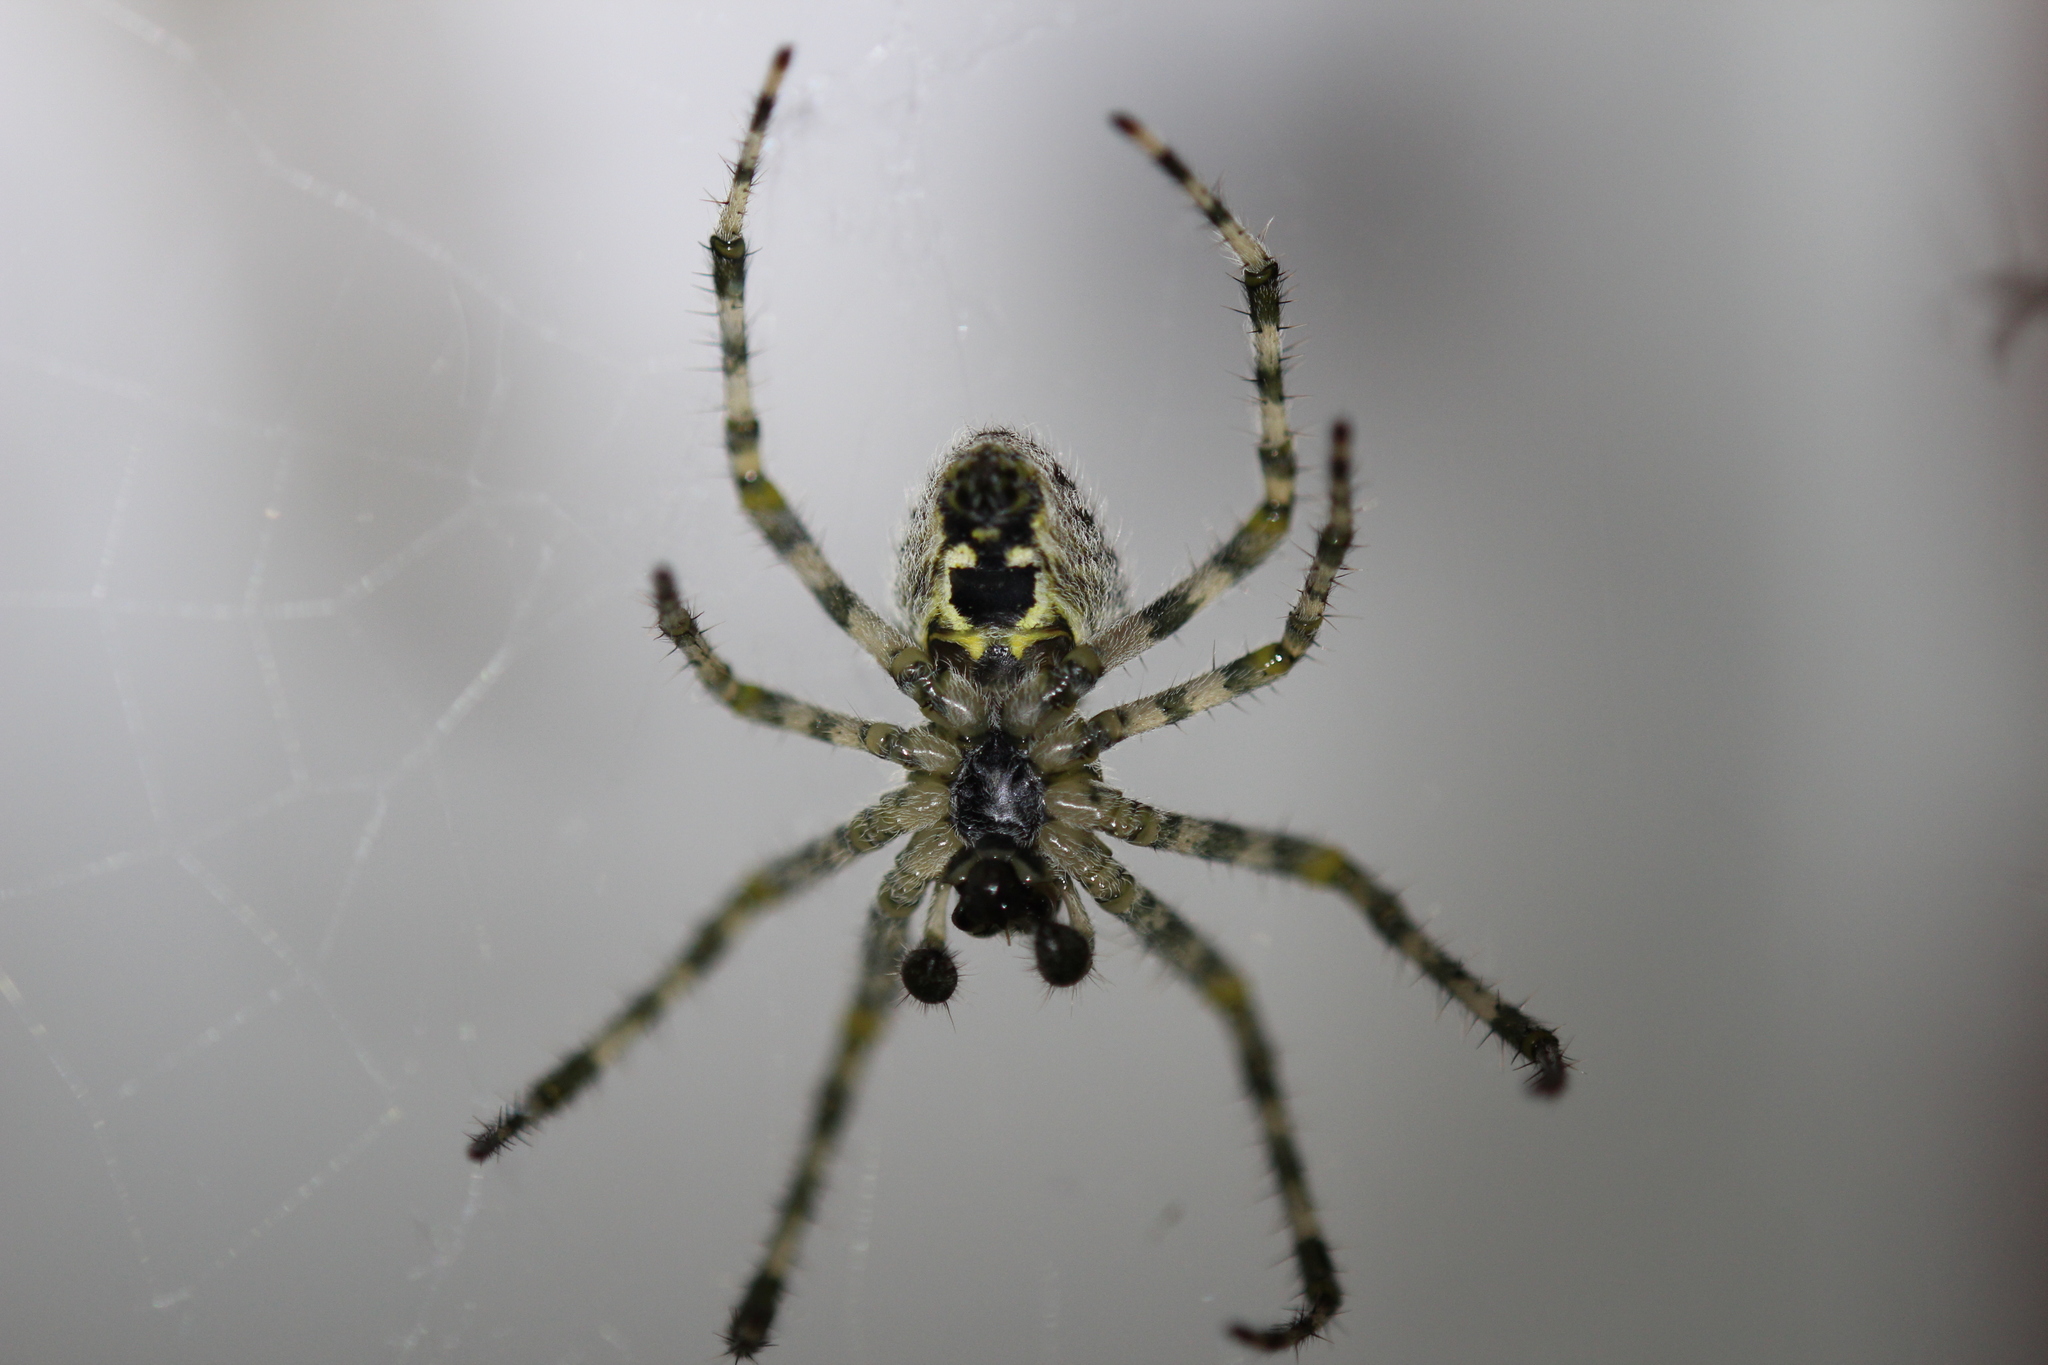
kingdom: Animalia
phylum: Arthropoda
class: Arachnida
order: Araneae
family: Araneidae
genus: Araneus
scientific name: Araneus cavaticus
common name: Barn orbweaver
